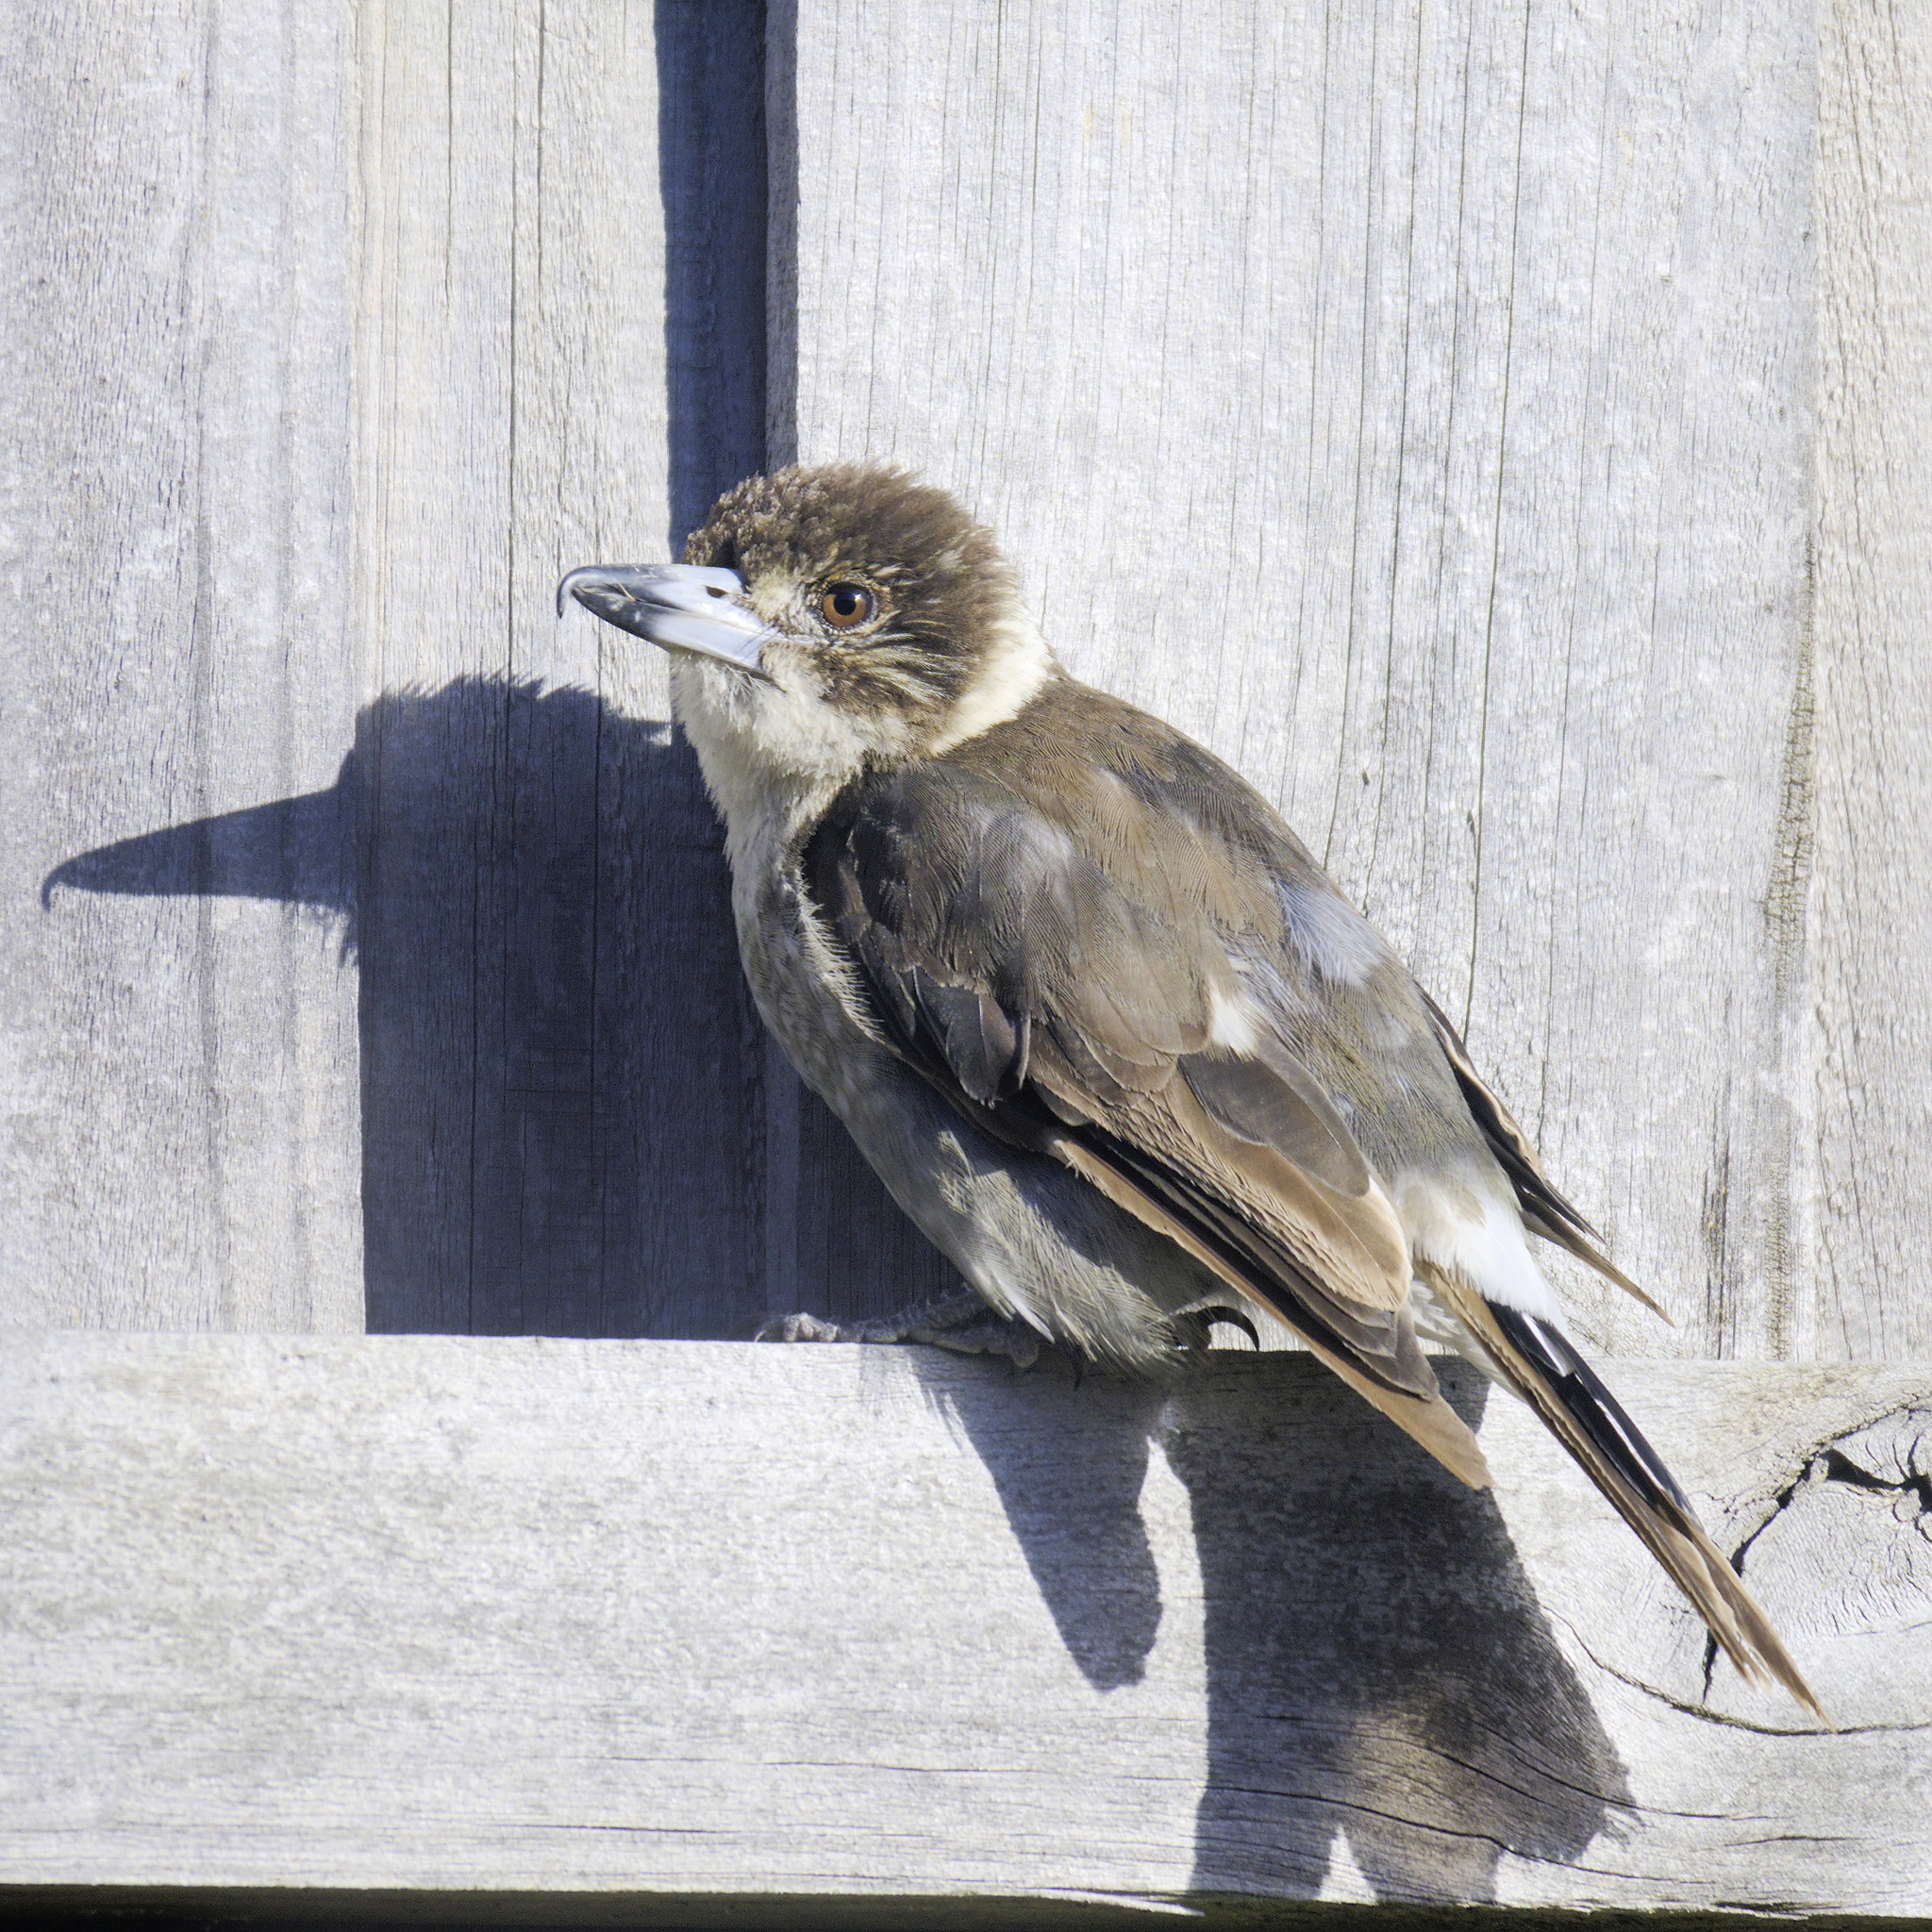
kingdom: Animalia
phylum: Chordata
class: Aves
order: Passeriformes
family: Cracticidae
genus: Cracticus
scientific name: Cracticus torquatus
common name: Grey butcherbird
